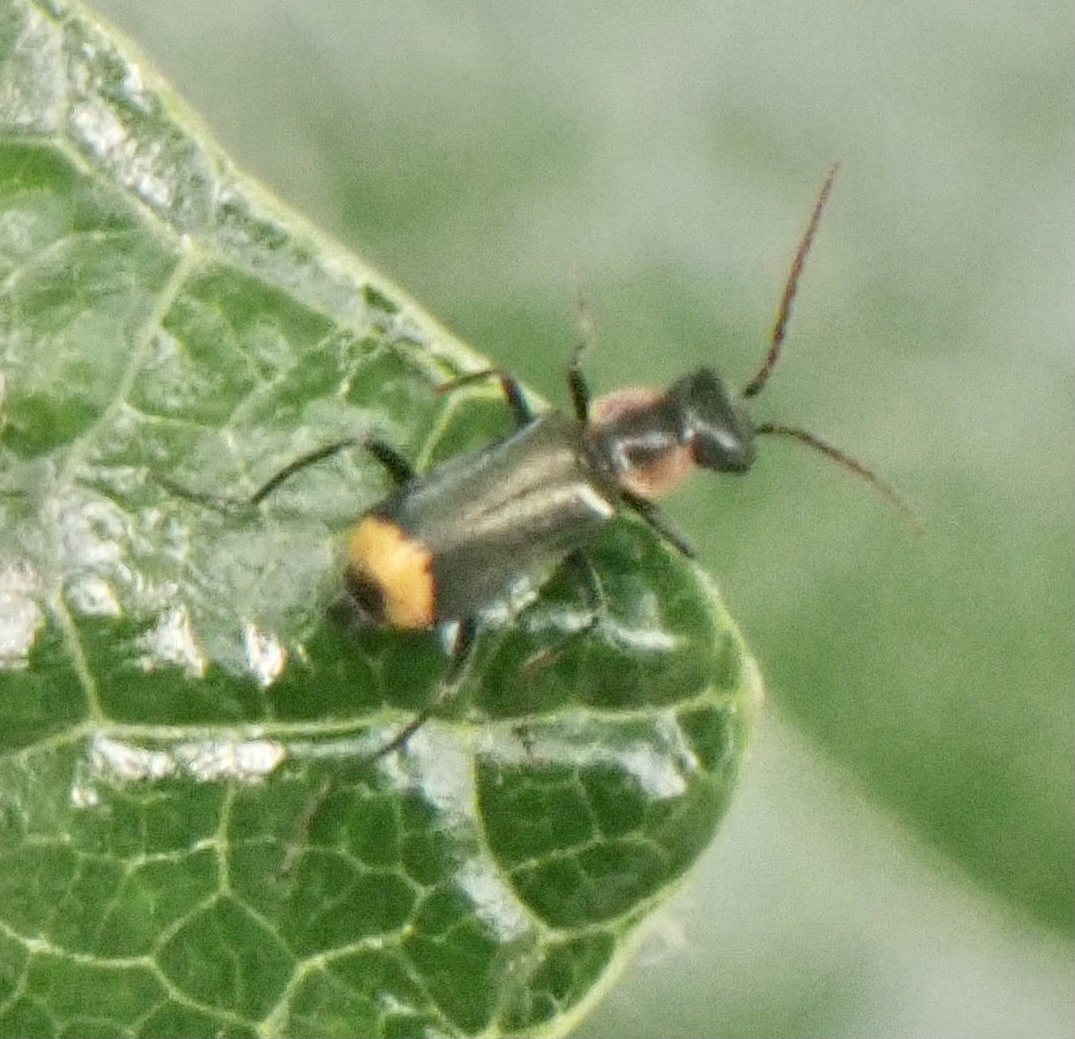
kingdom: Animalia
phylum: Arthropoda
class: Insecta
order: Coleoptera
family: Melyridae
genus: Axinotarsus
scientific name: Axinotarsus pulicarius
